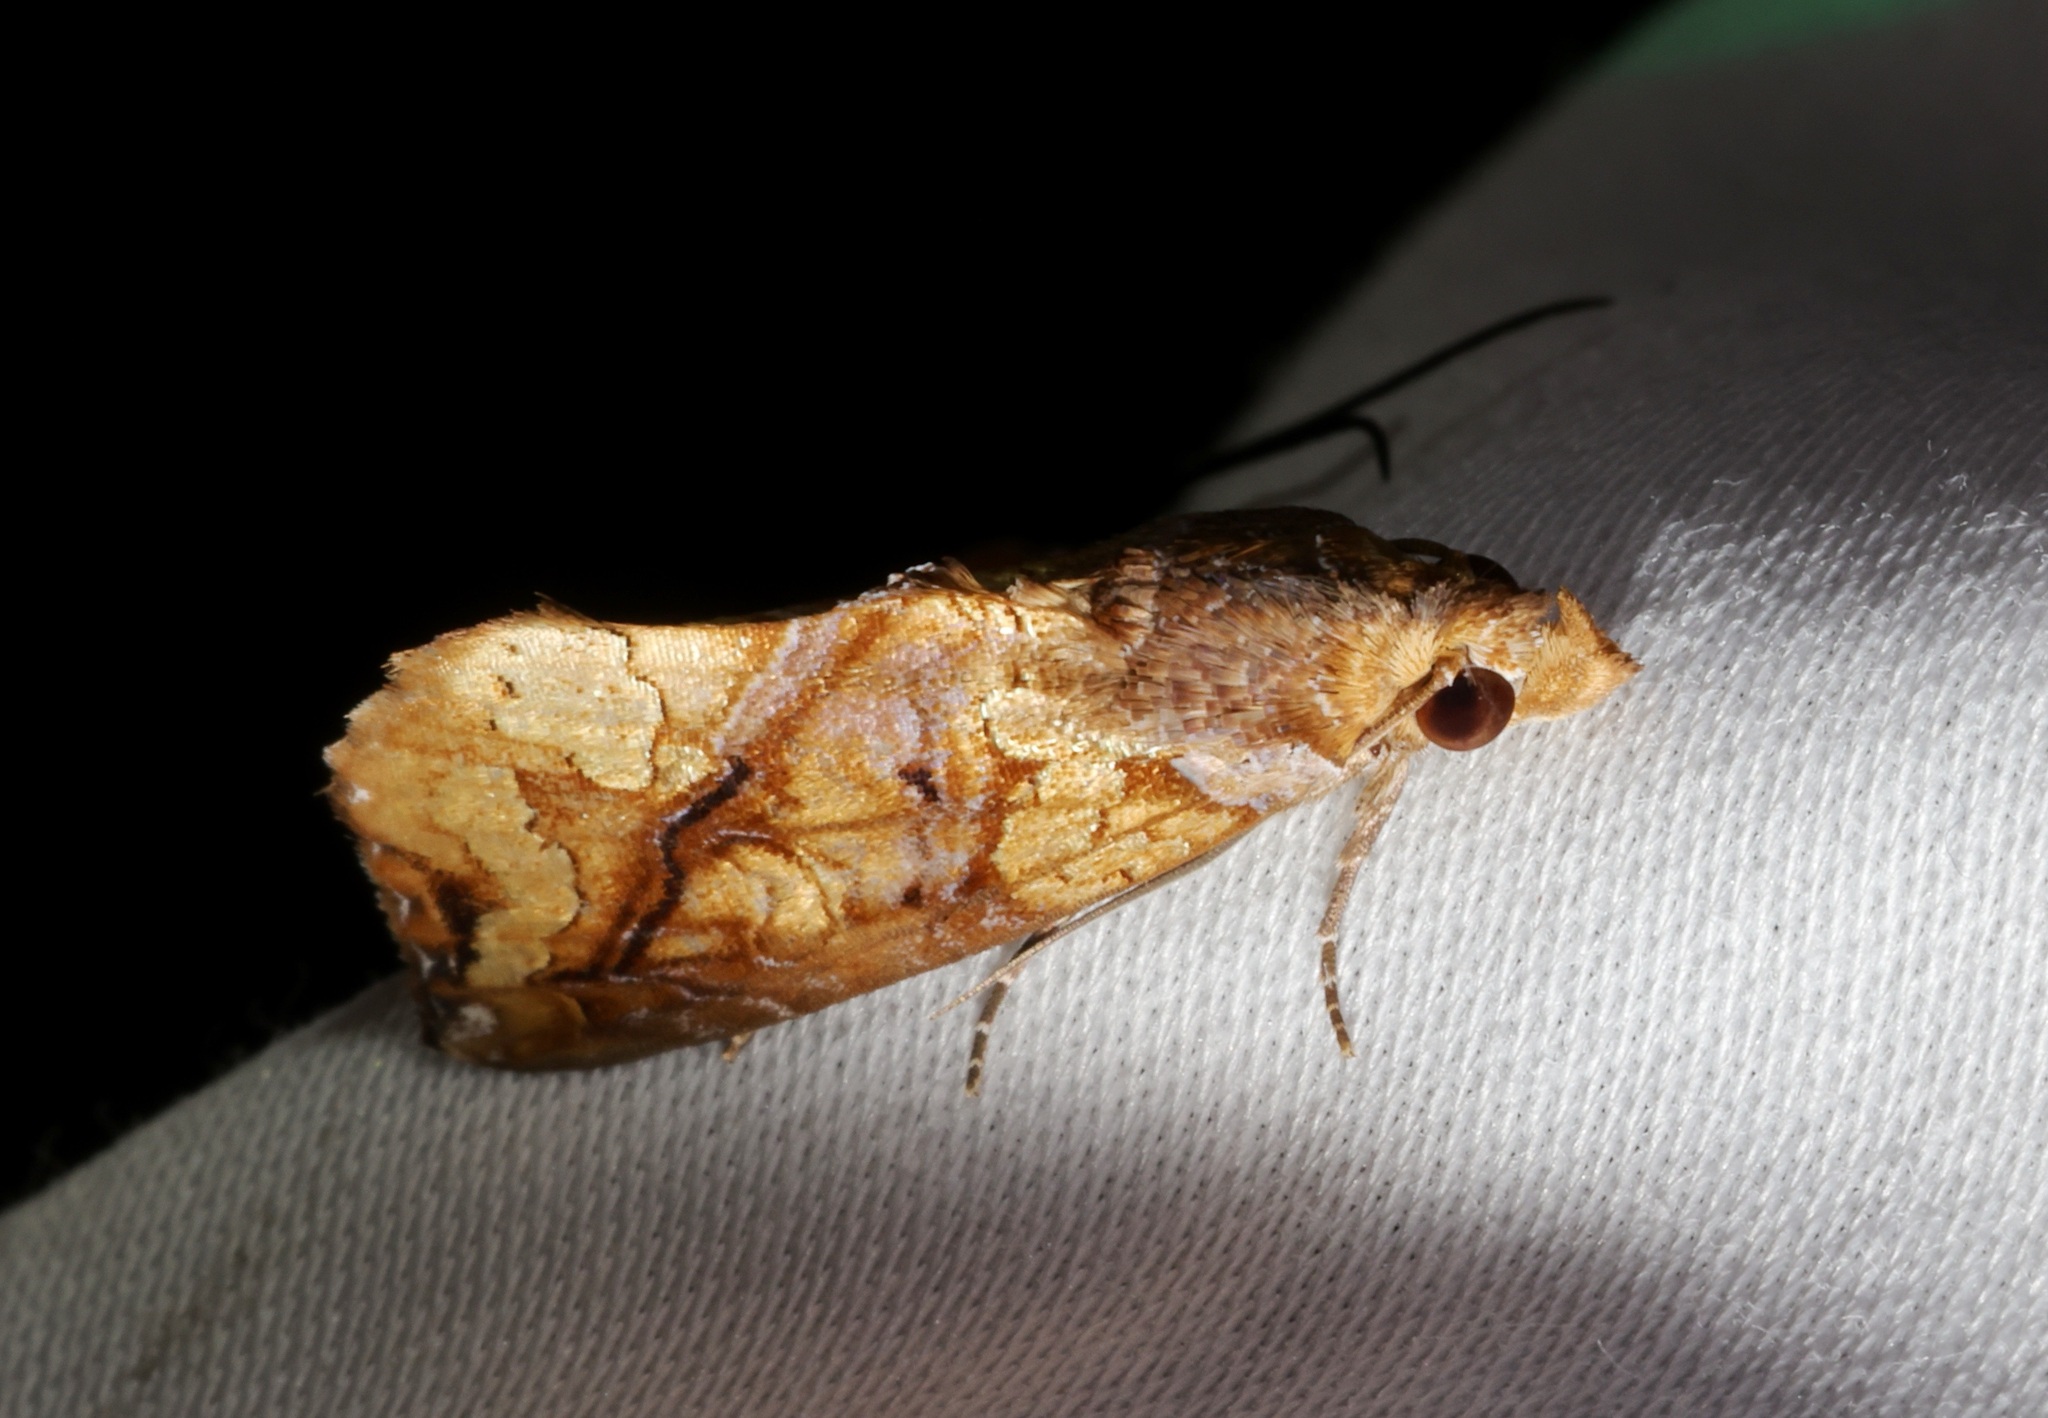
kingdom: Animalia
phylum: Arthropoda
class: Insecta
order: Lepidoptera
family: Erebidae
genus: Plusiodonta
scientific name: Plusiodonta coelonota
